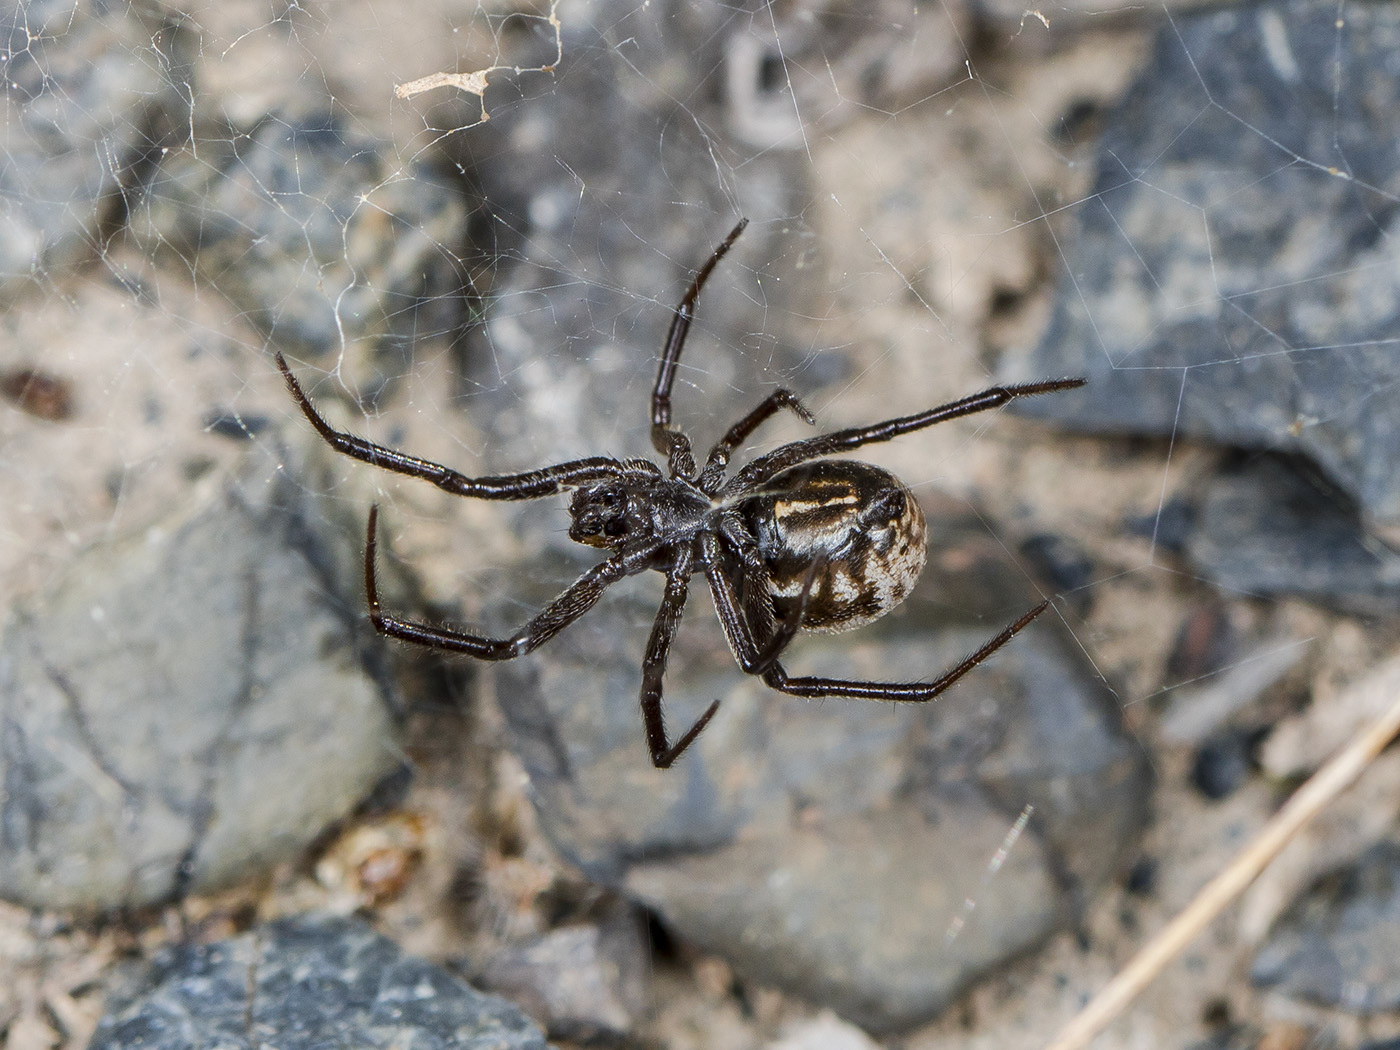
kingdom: Animalia
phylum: Arthropoda
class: Arachnida
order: Araneae
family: Theridiidae
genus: Steatoda
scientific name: Steatoda albomaculata
